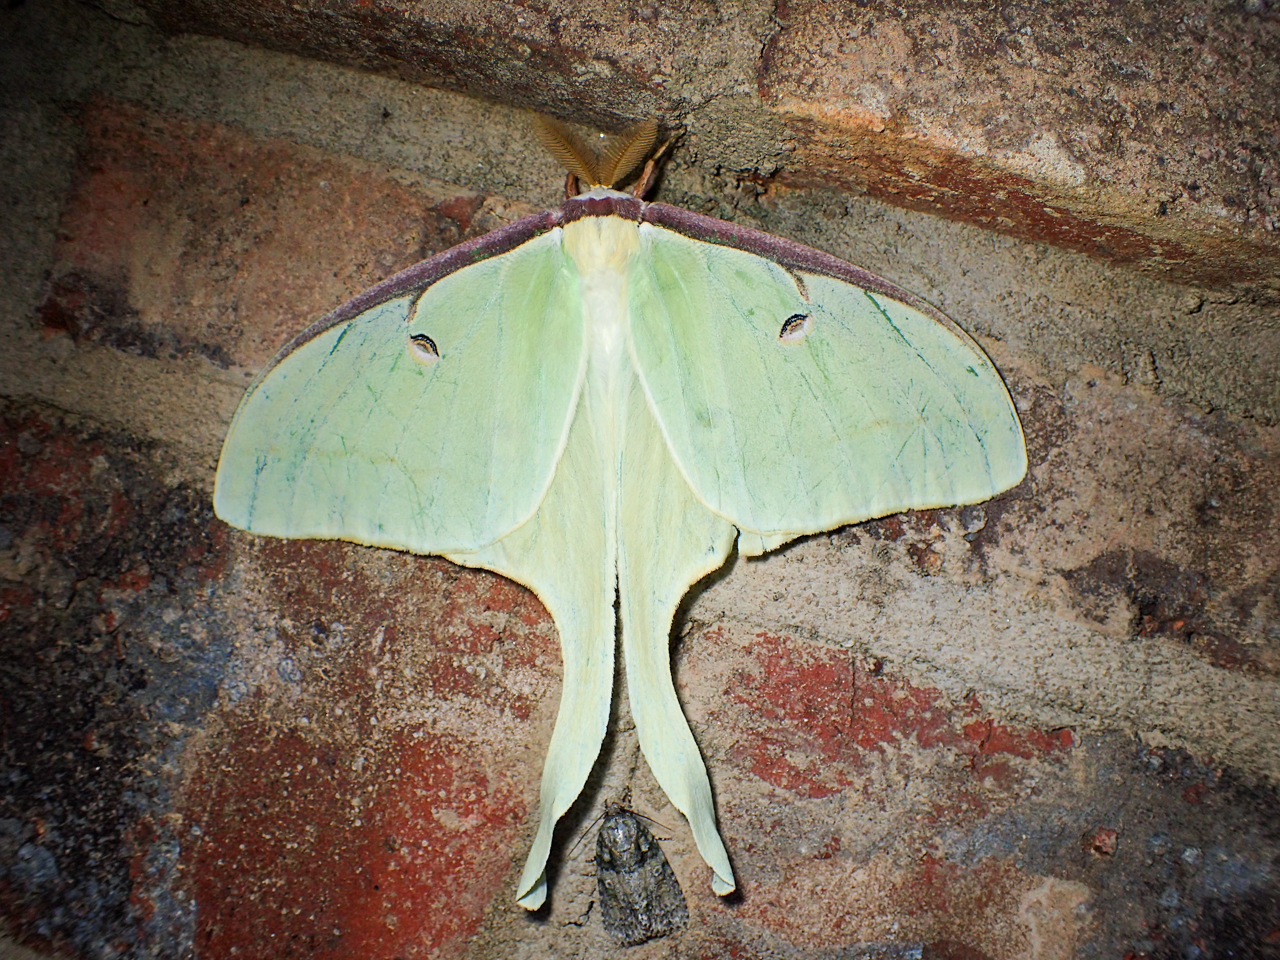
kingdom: Animalia
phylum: Arthropoda
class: Insecta
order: Lepidoptera
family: Saturniidae
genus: Actias
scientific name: Actias luna
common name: Luna moth
